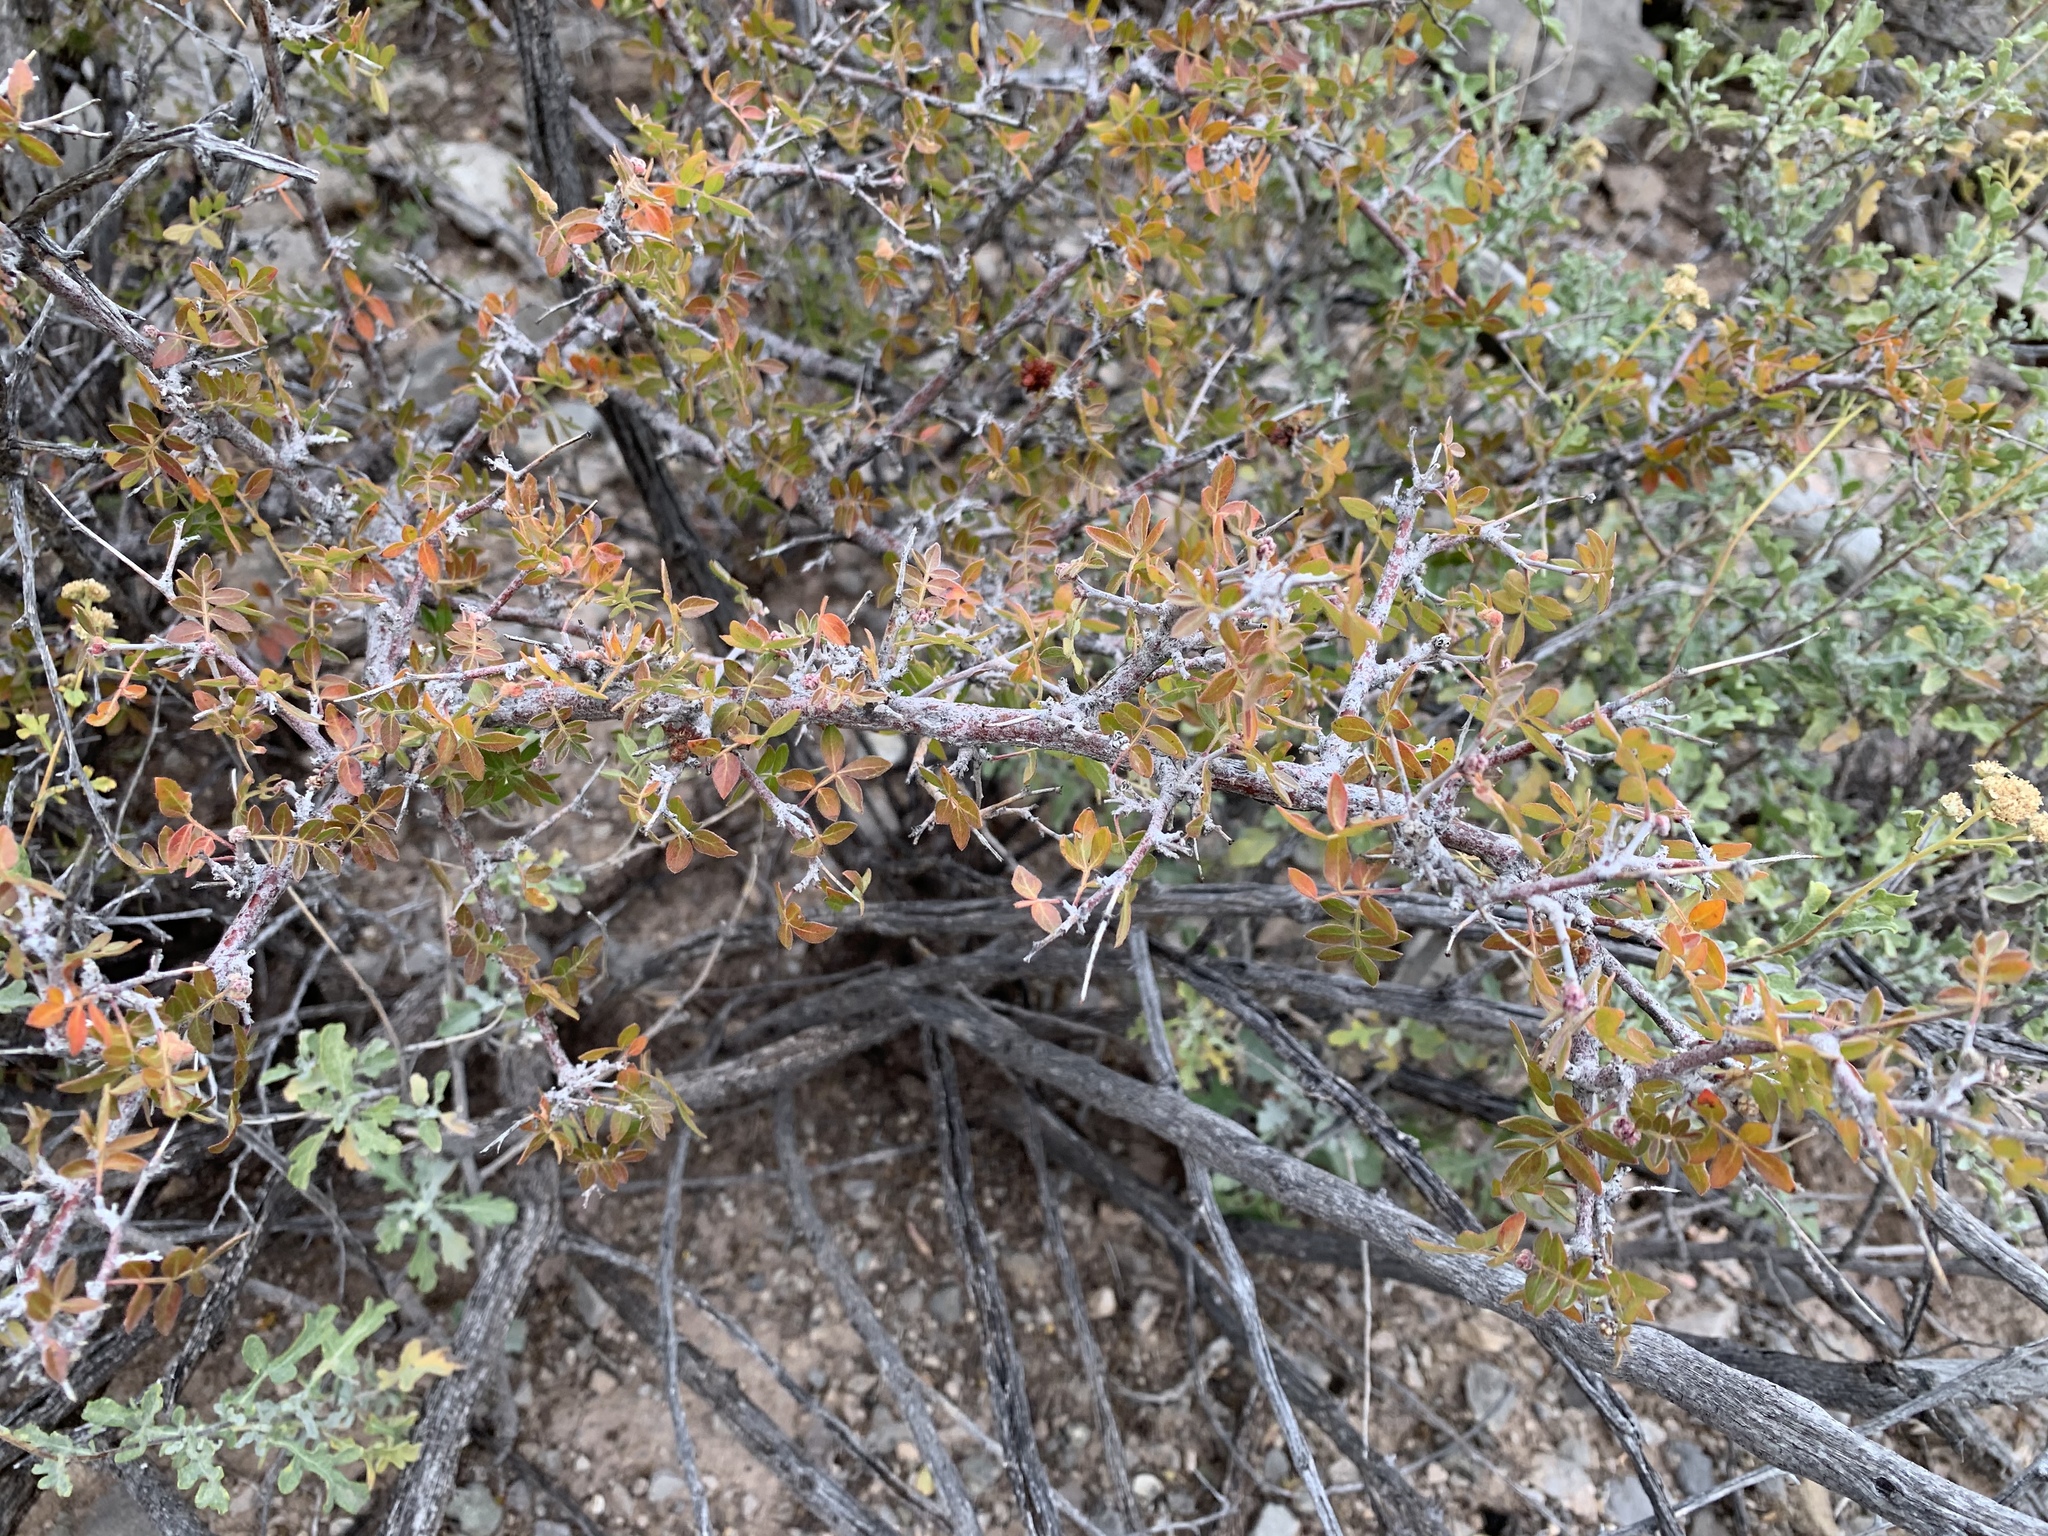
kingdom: Plantae
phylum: Tracheophyta
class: Magnoliopsida
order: Sapindales
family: Anacardiaceae
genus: Rhus
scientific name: Rhus microphylla
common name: Desert sumac
